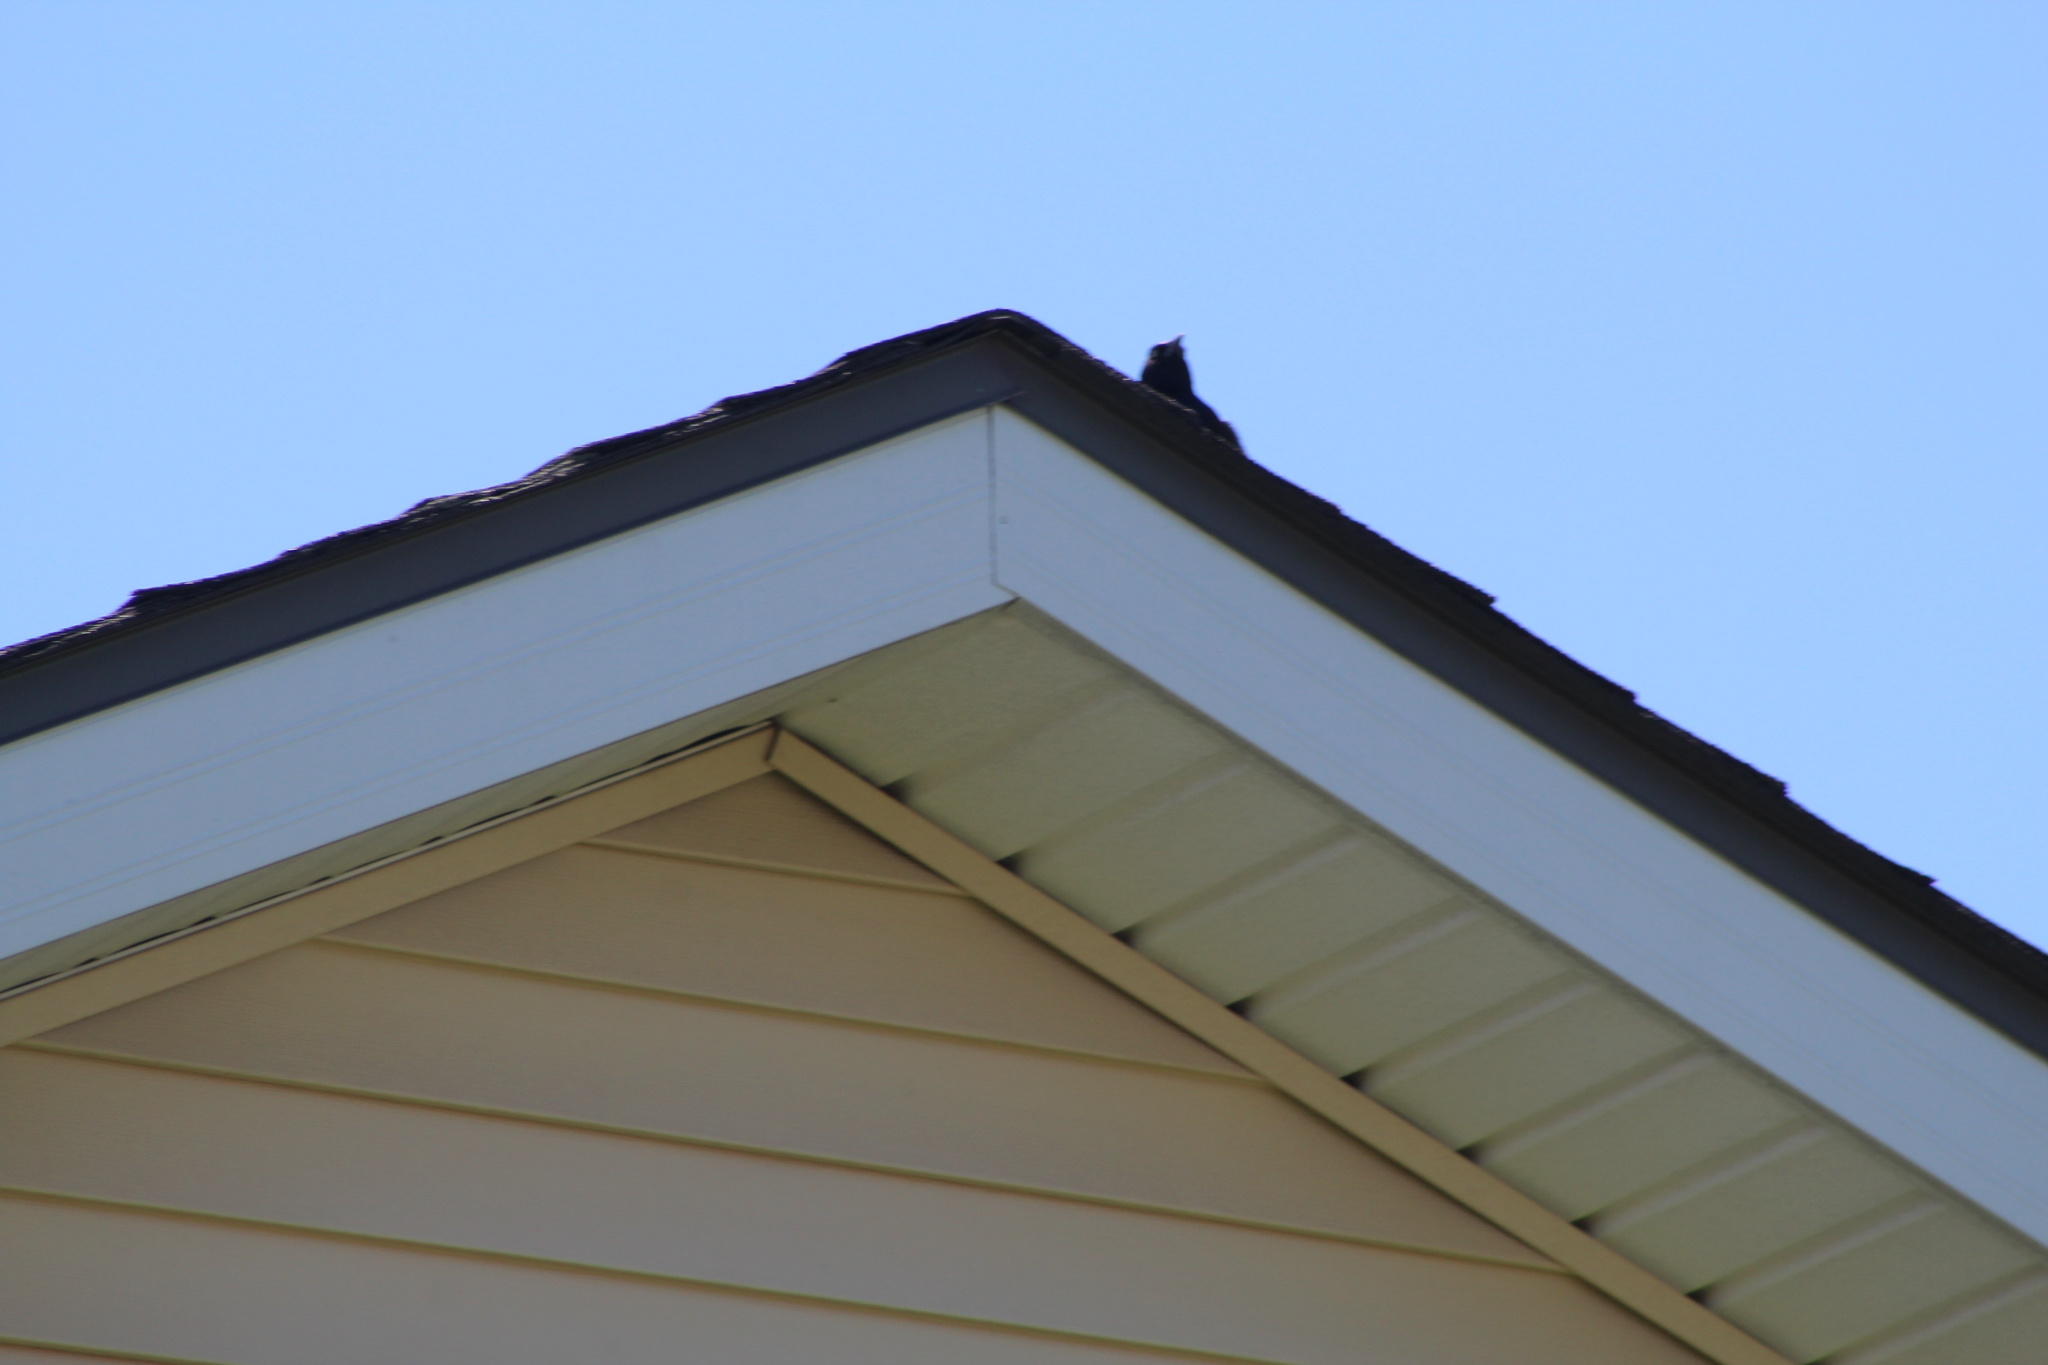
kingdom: Animalia
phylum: Chordata
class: Aves
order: Passeriformes
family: Icteridae
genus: Quiscalus
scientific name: Quiscalus quiscula
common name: Common grackle
